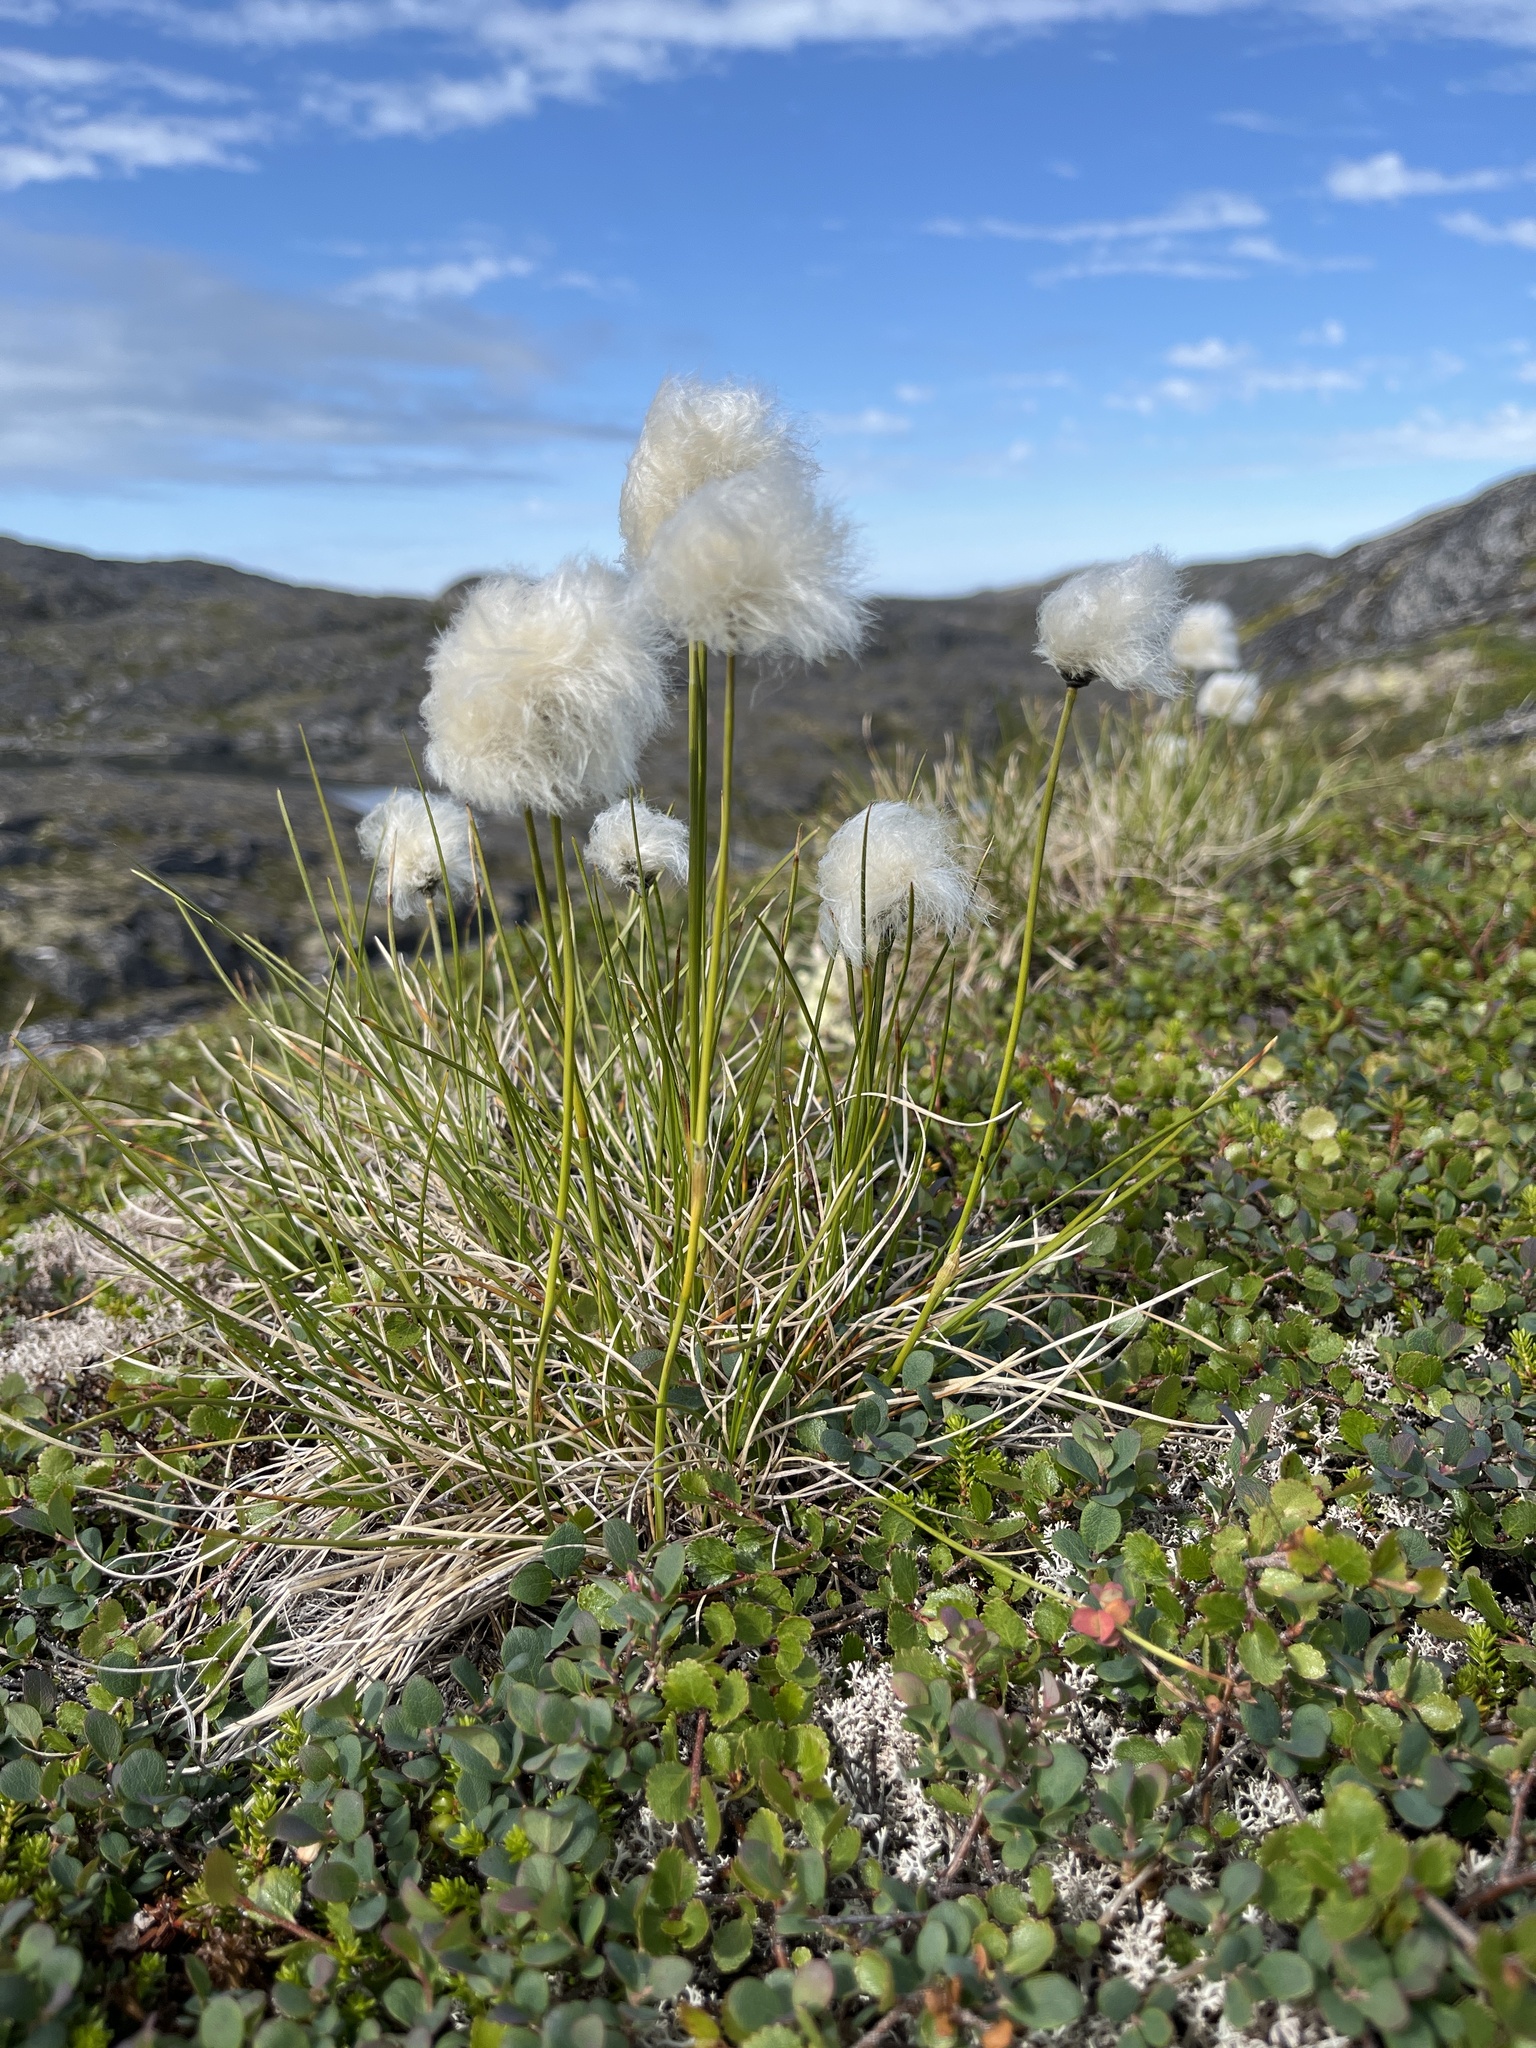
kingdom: Plantae
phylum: Tracheophyta
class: Liliopsida
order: Poales
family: Cyperaceae
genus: Eriophorum
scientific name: Eriophorum vaginatum
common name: Hare's-tail cottongrass
